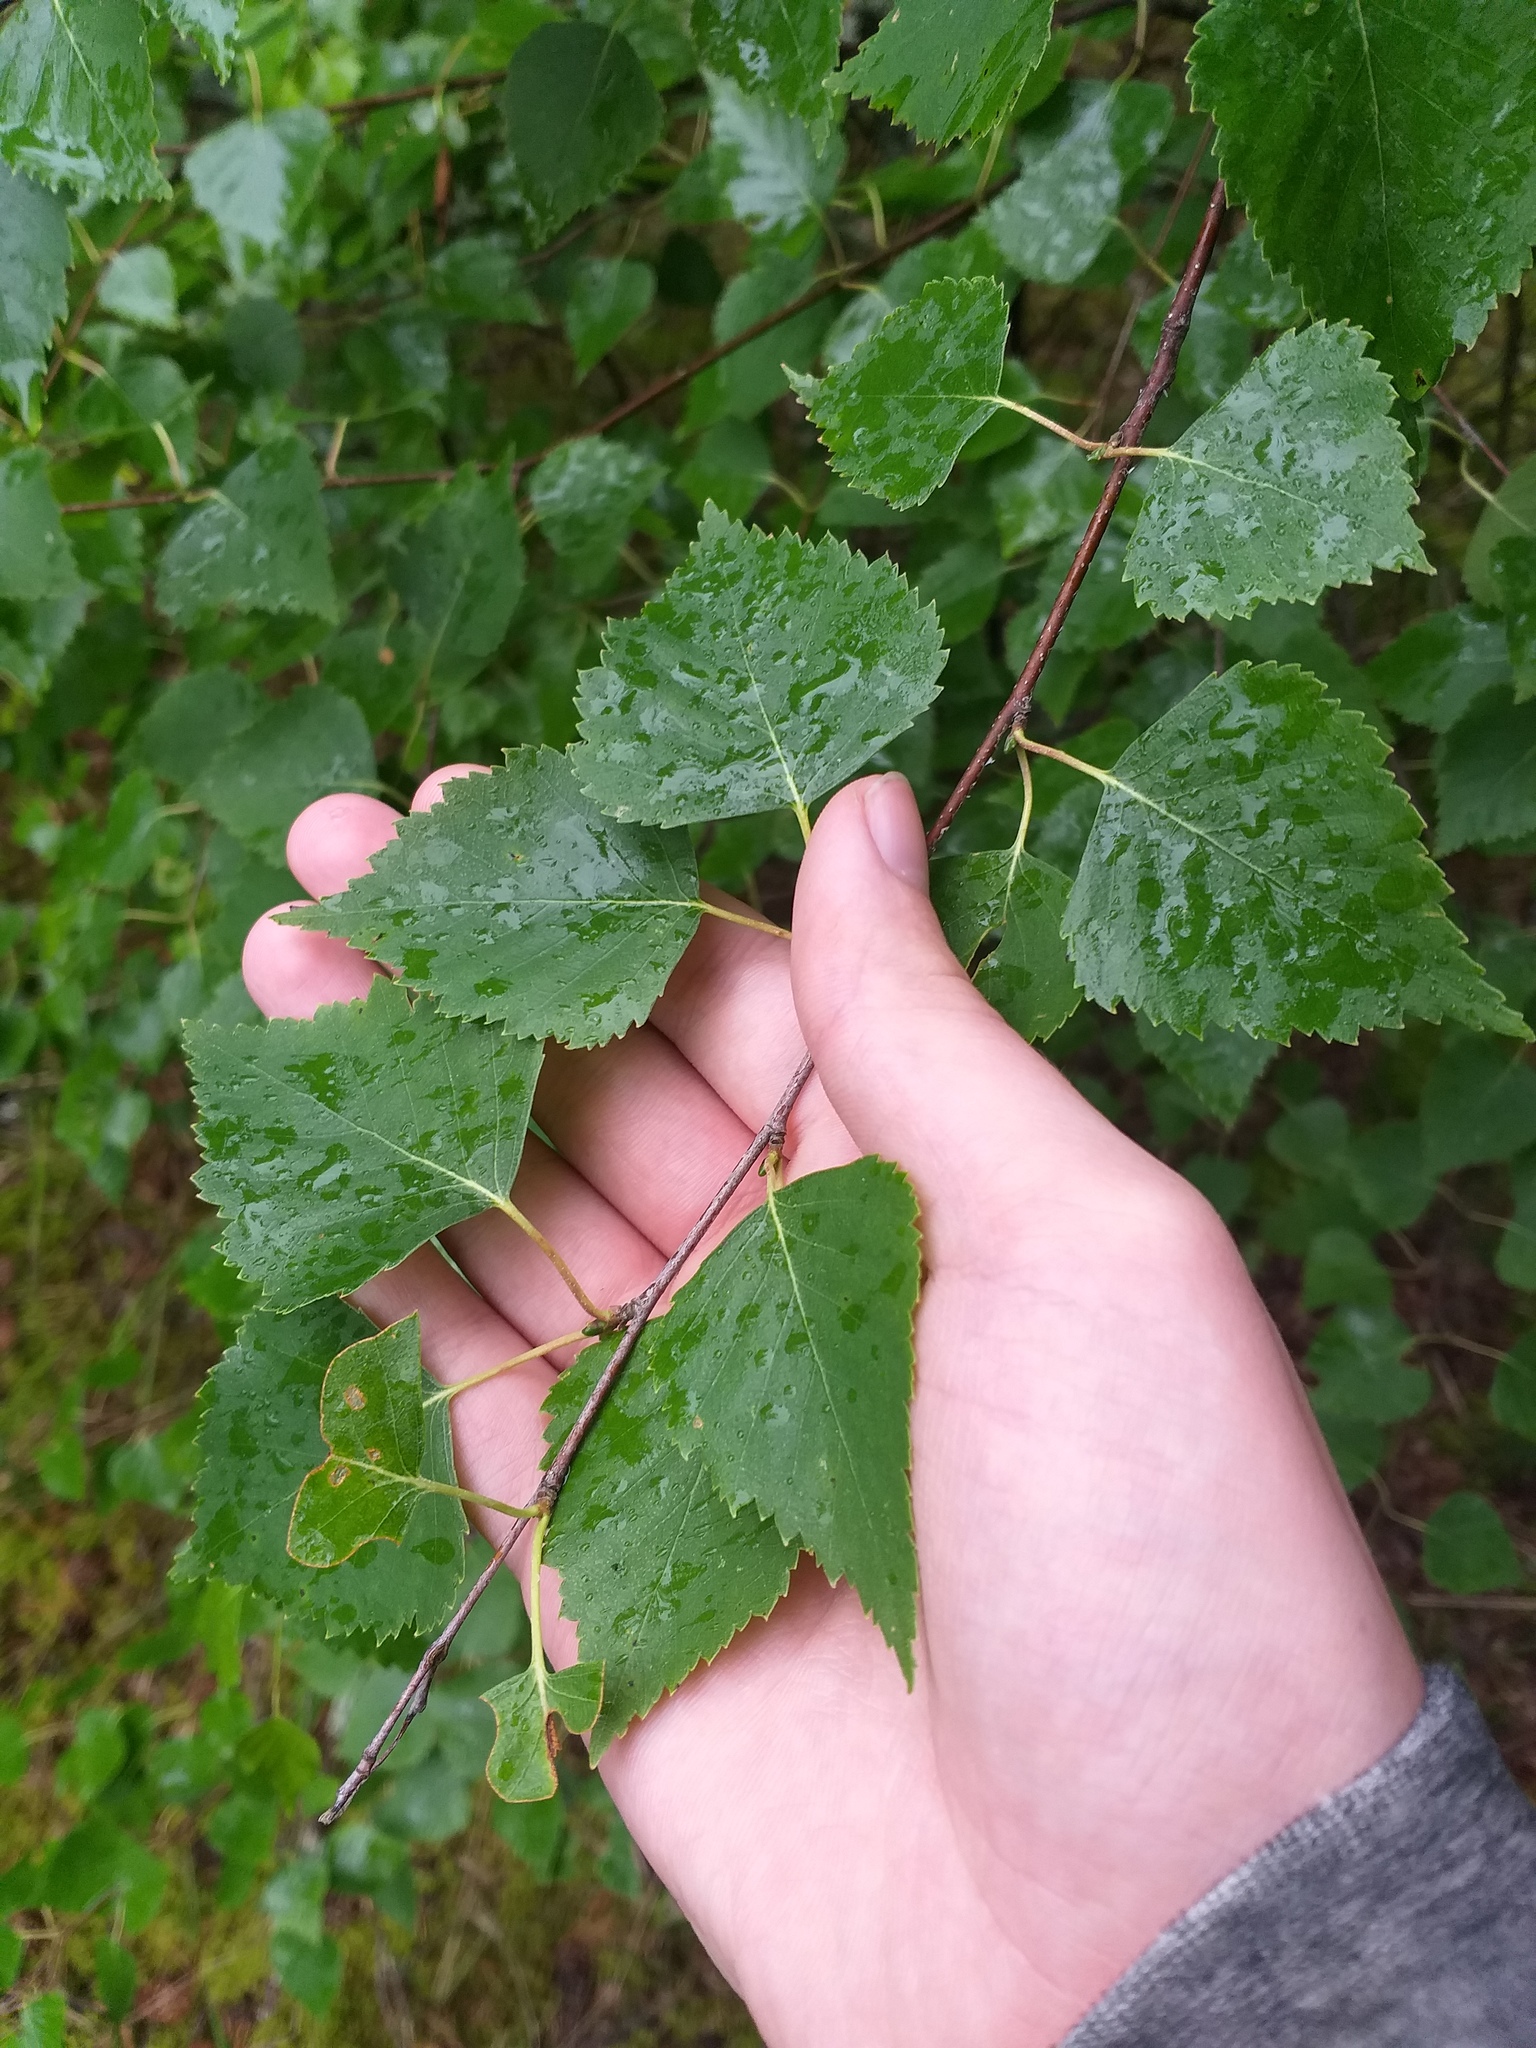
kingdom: Plantae
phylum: Tracheophyta
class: Magnoliopsida
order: Fagales
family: Betulaceae
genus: Betula
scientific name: Betula pendula
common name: Silver birch
